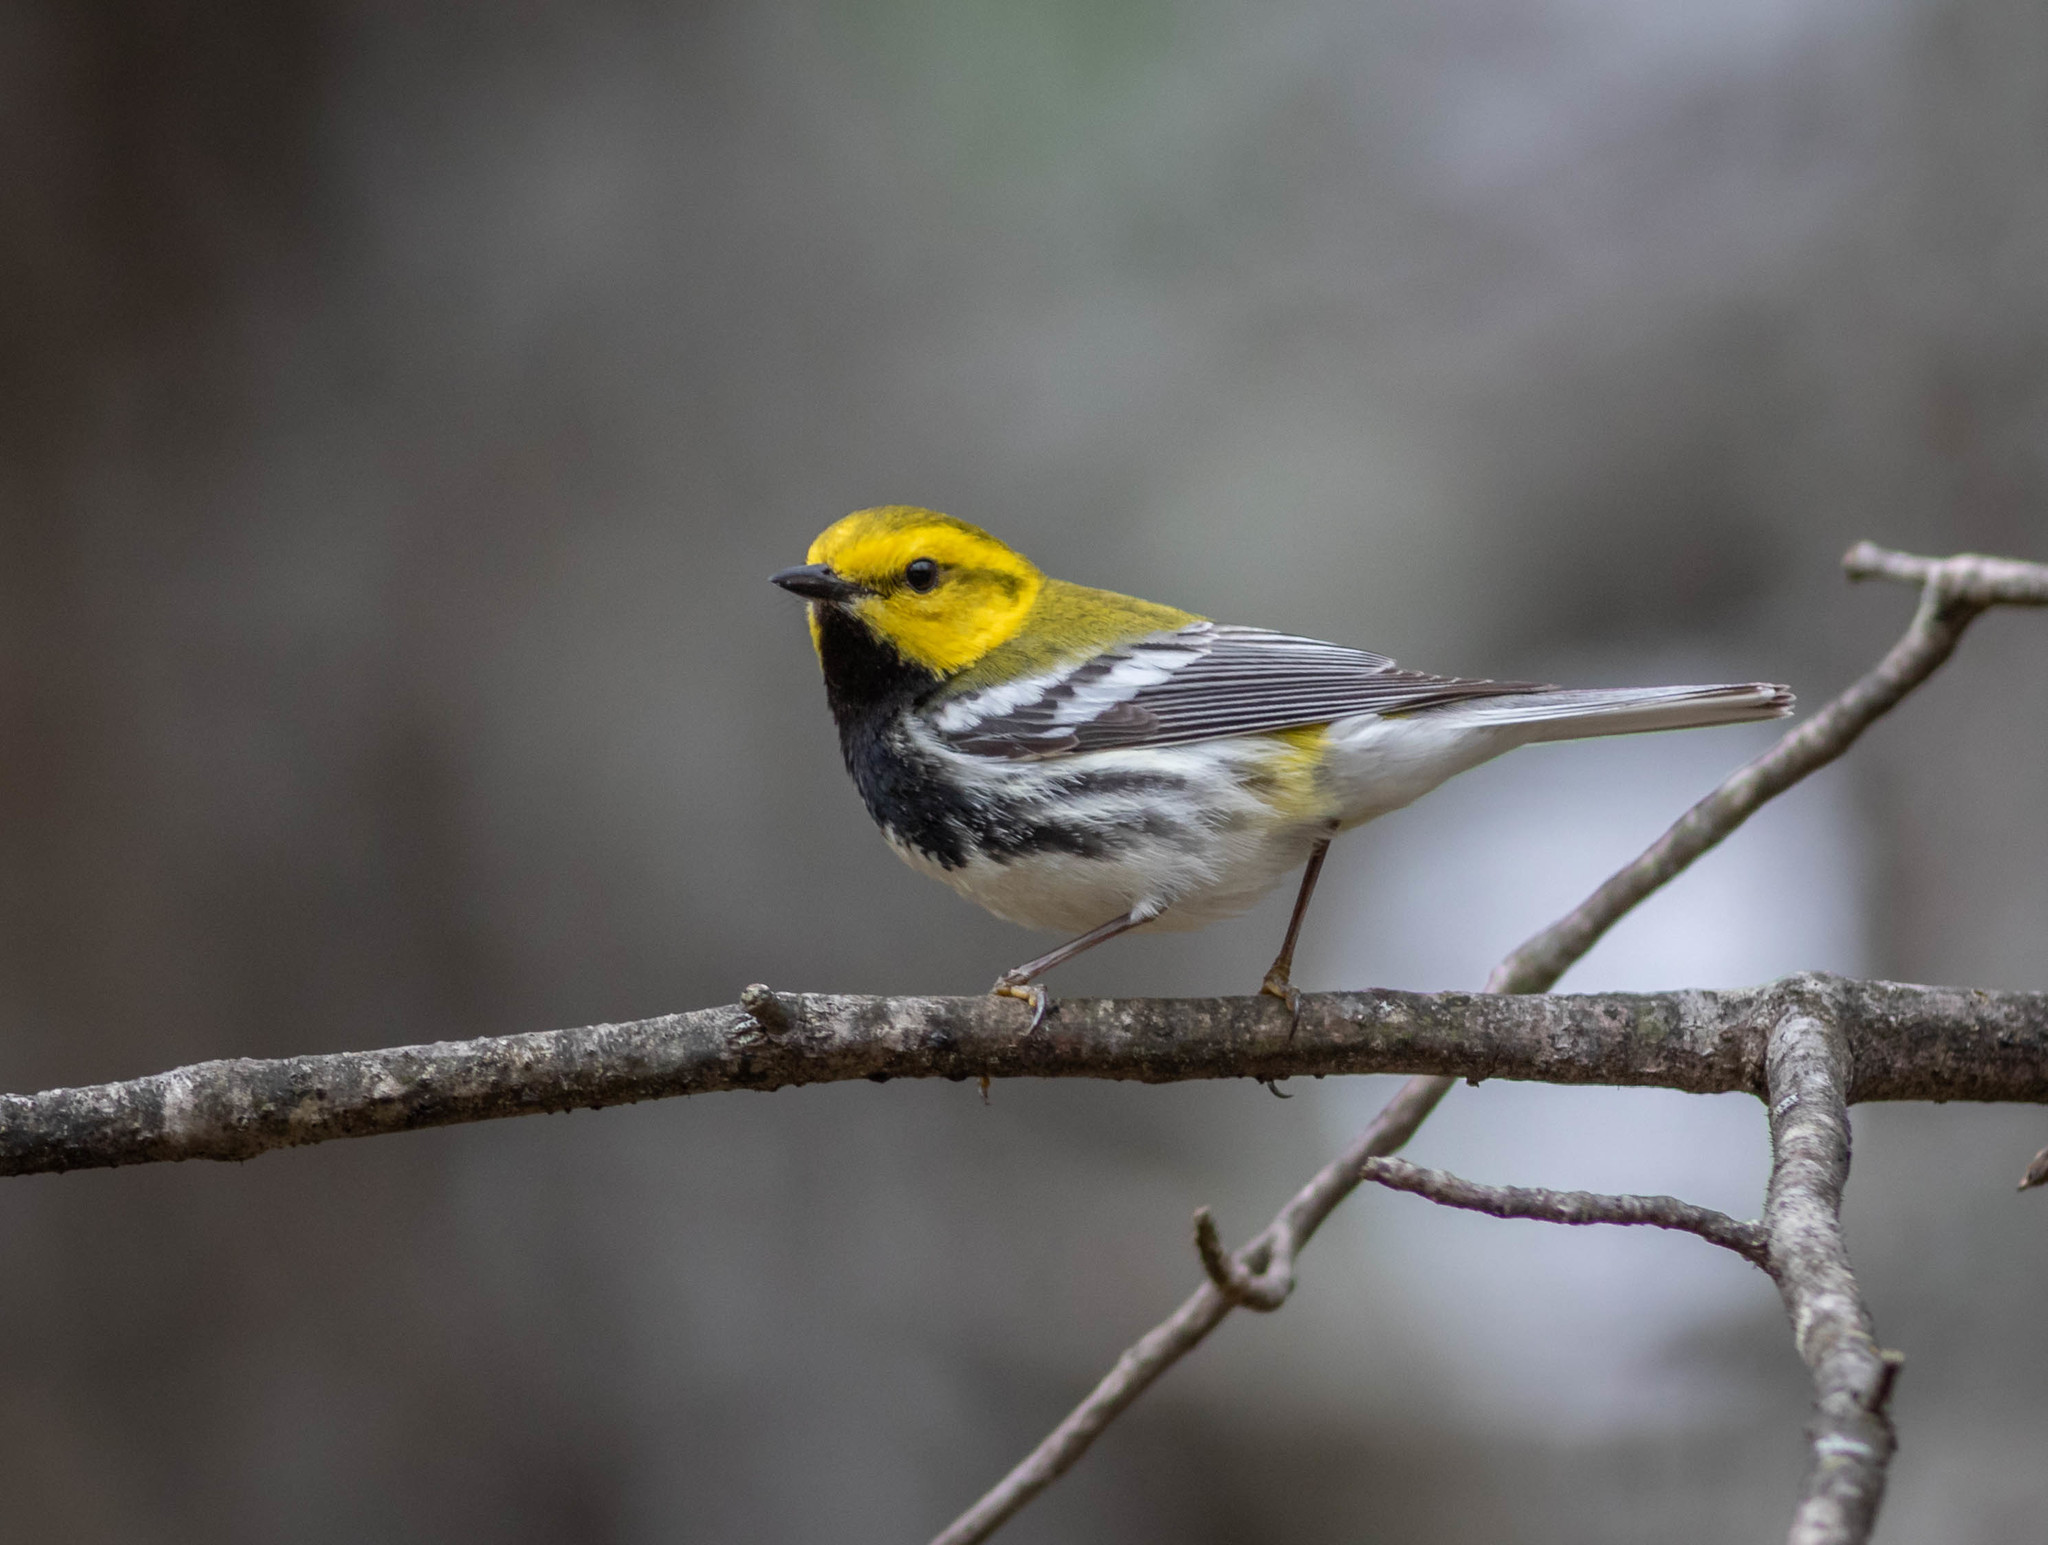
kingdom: Animalia
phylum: Chordata
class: Aves
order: Passeriformes
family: Parulidae
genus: Setophaga
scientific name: Setophaga virens
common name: Black-throated green warbler
